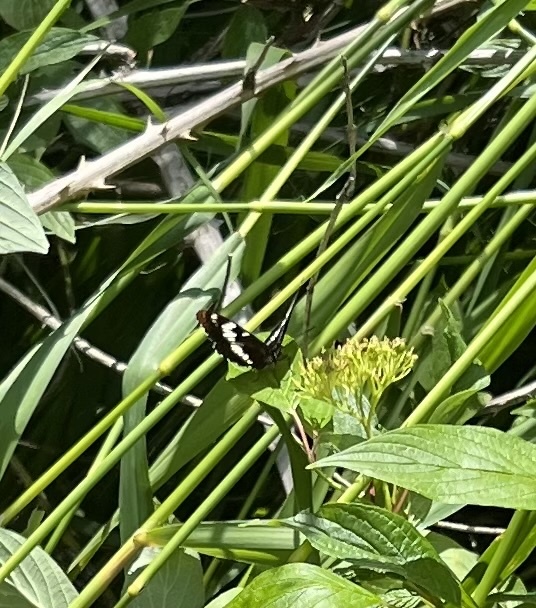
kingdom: Animalia
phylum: Arthropoda
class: Insecta
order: Lepidoptera
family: Nymphalidae
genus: Limenitis
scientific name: Limenitis lorquini
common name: Lorquin's admiral
